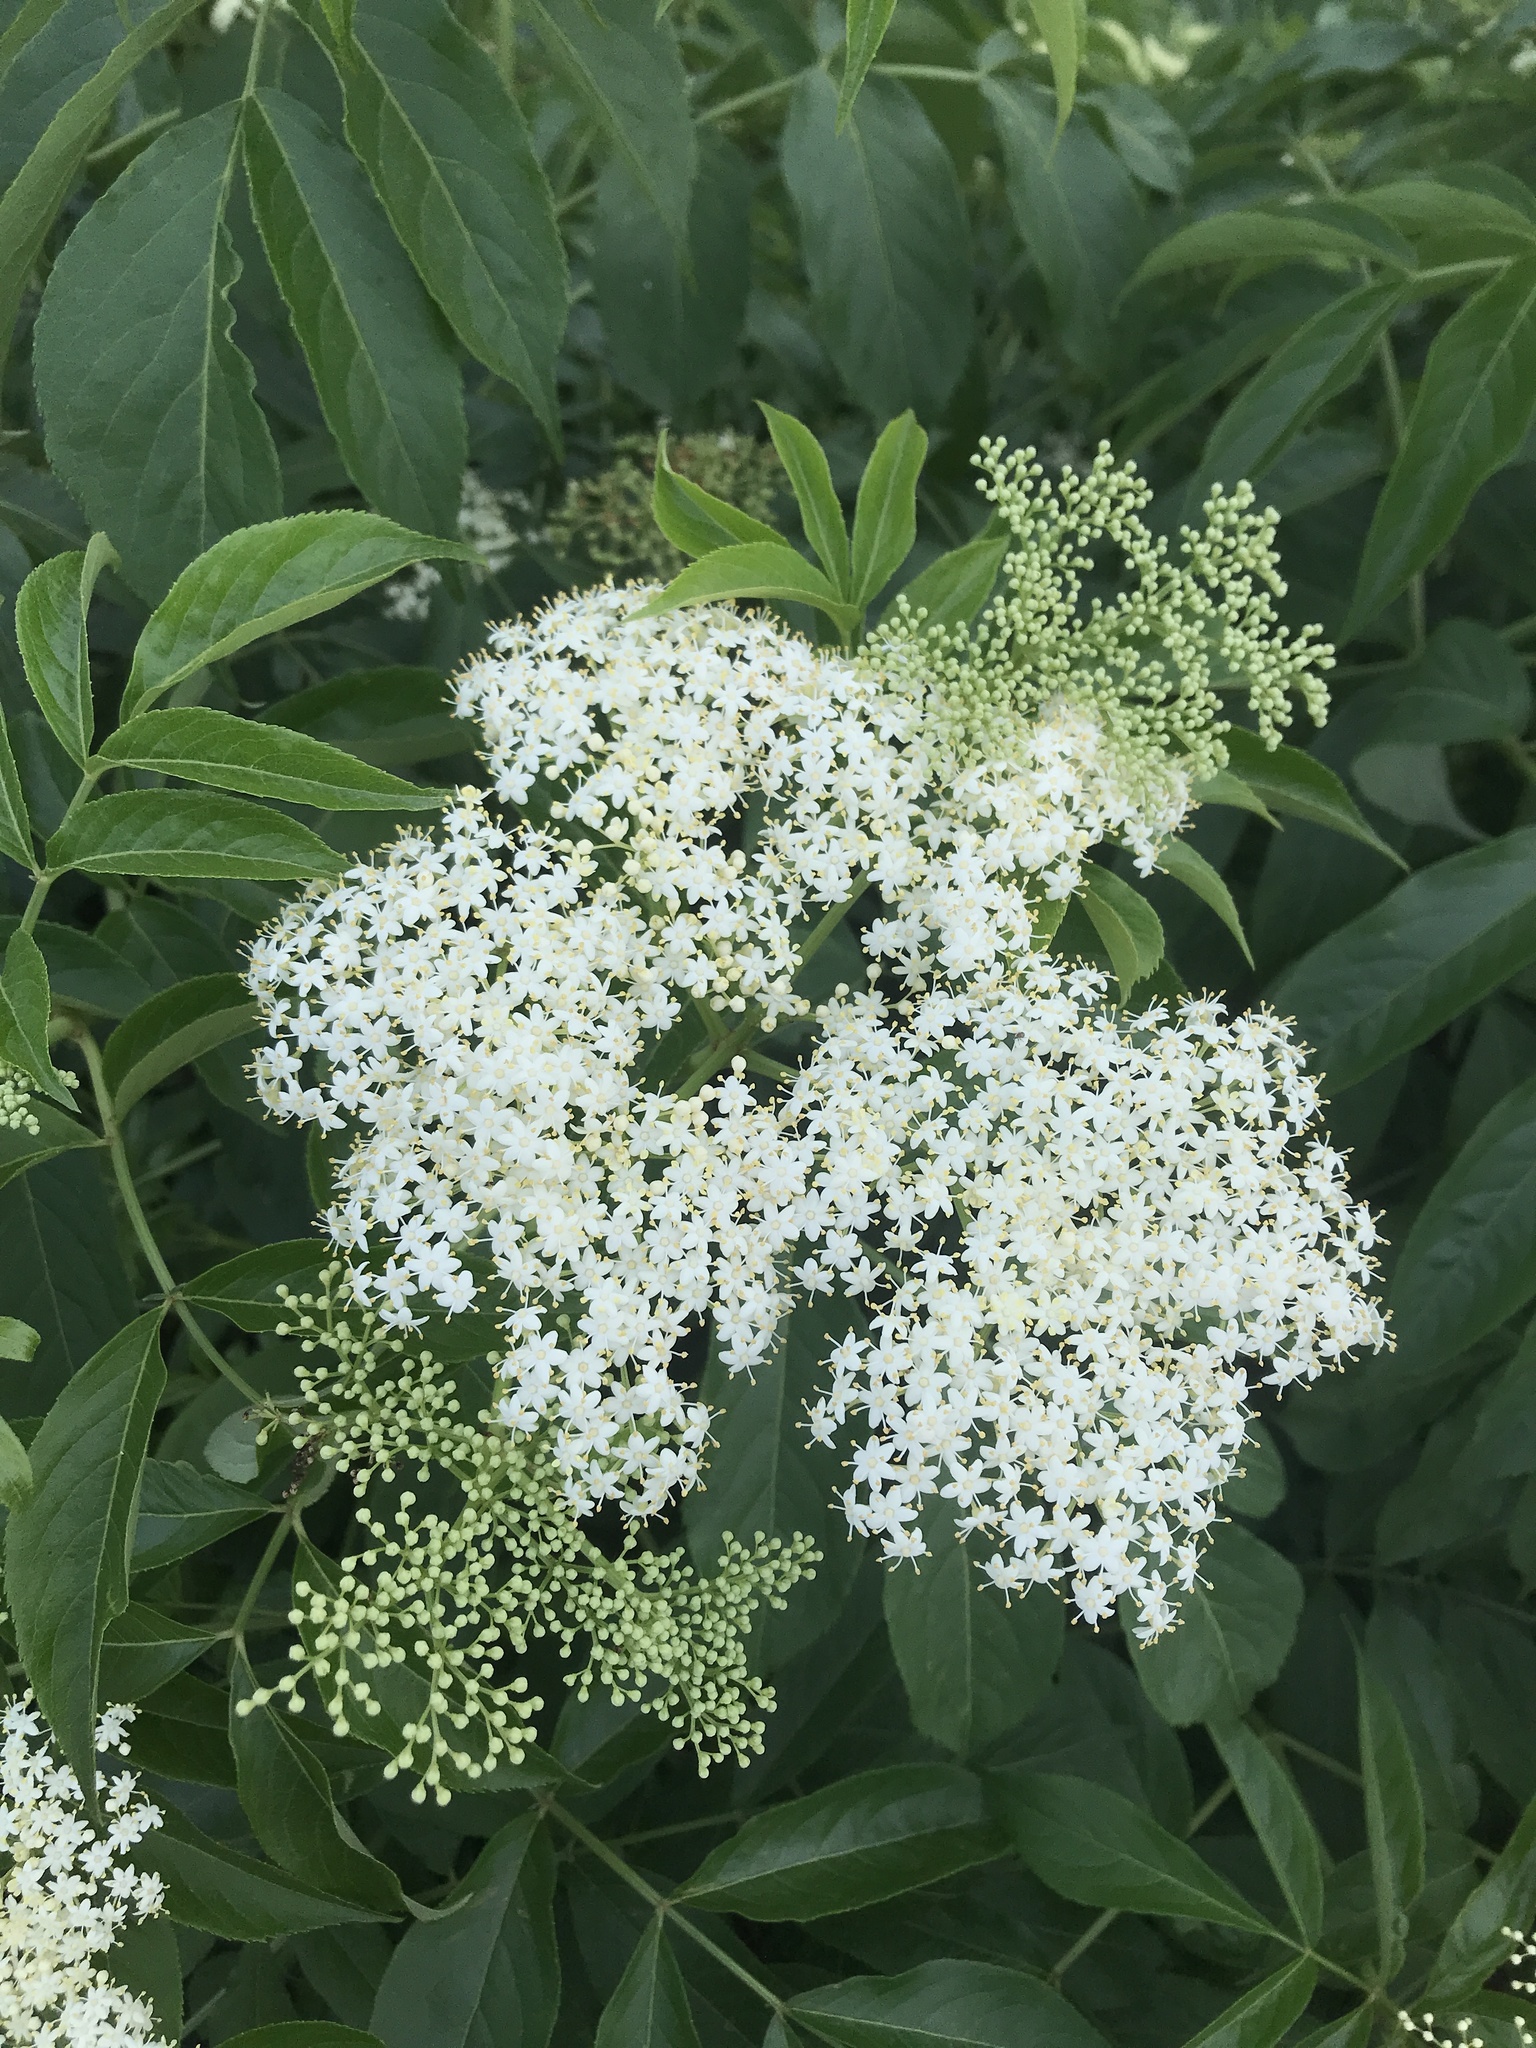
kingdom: Plantae
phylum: Tracheophyta
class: Magnoliopsida
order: Dipsacales
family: Viburnaceae
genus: Sambucus
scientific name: Sambucus canadensis
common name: American elder
